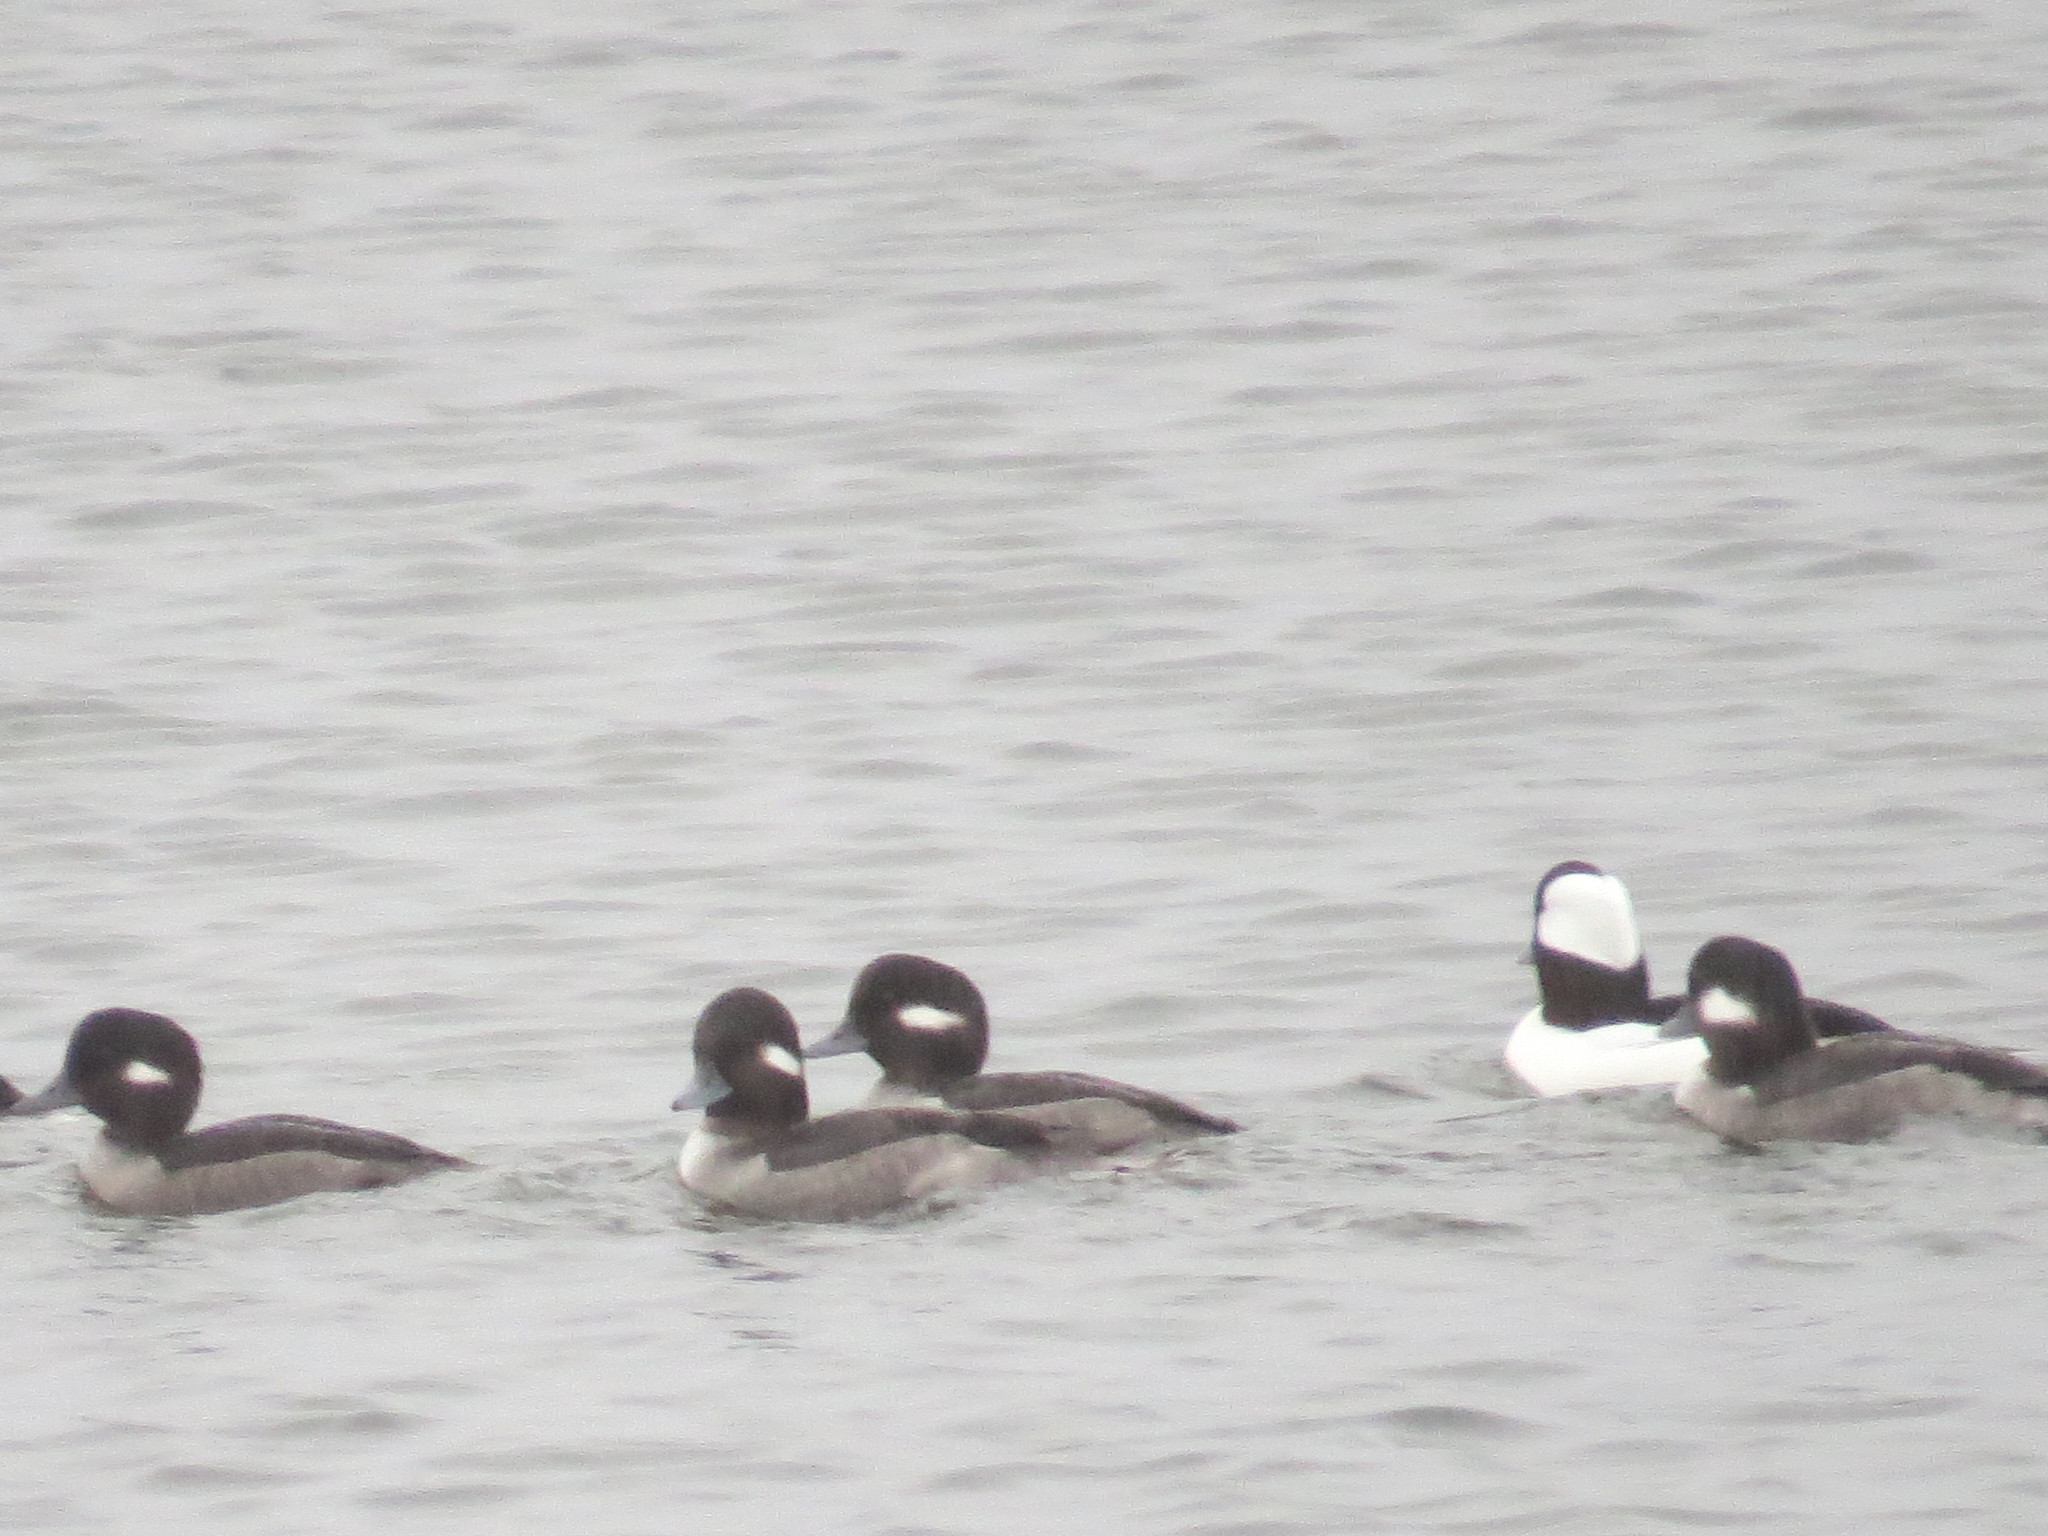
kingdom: Animalia
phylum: Chordata
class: Aves
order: Anseriformes
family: Anatidae
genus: Bucephala
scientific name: Bucephala albeola
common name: Bufflehead
